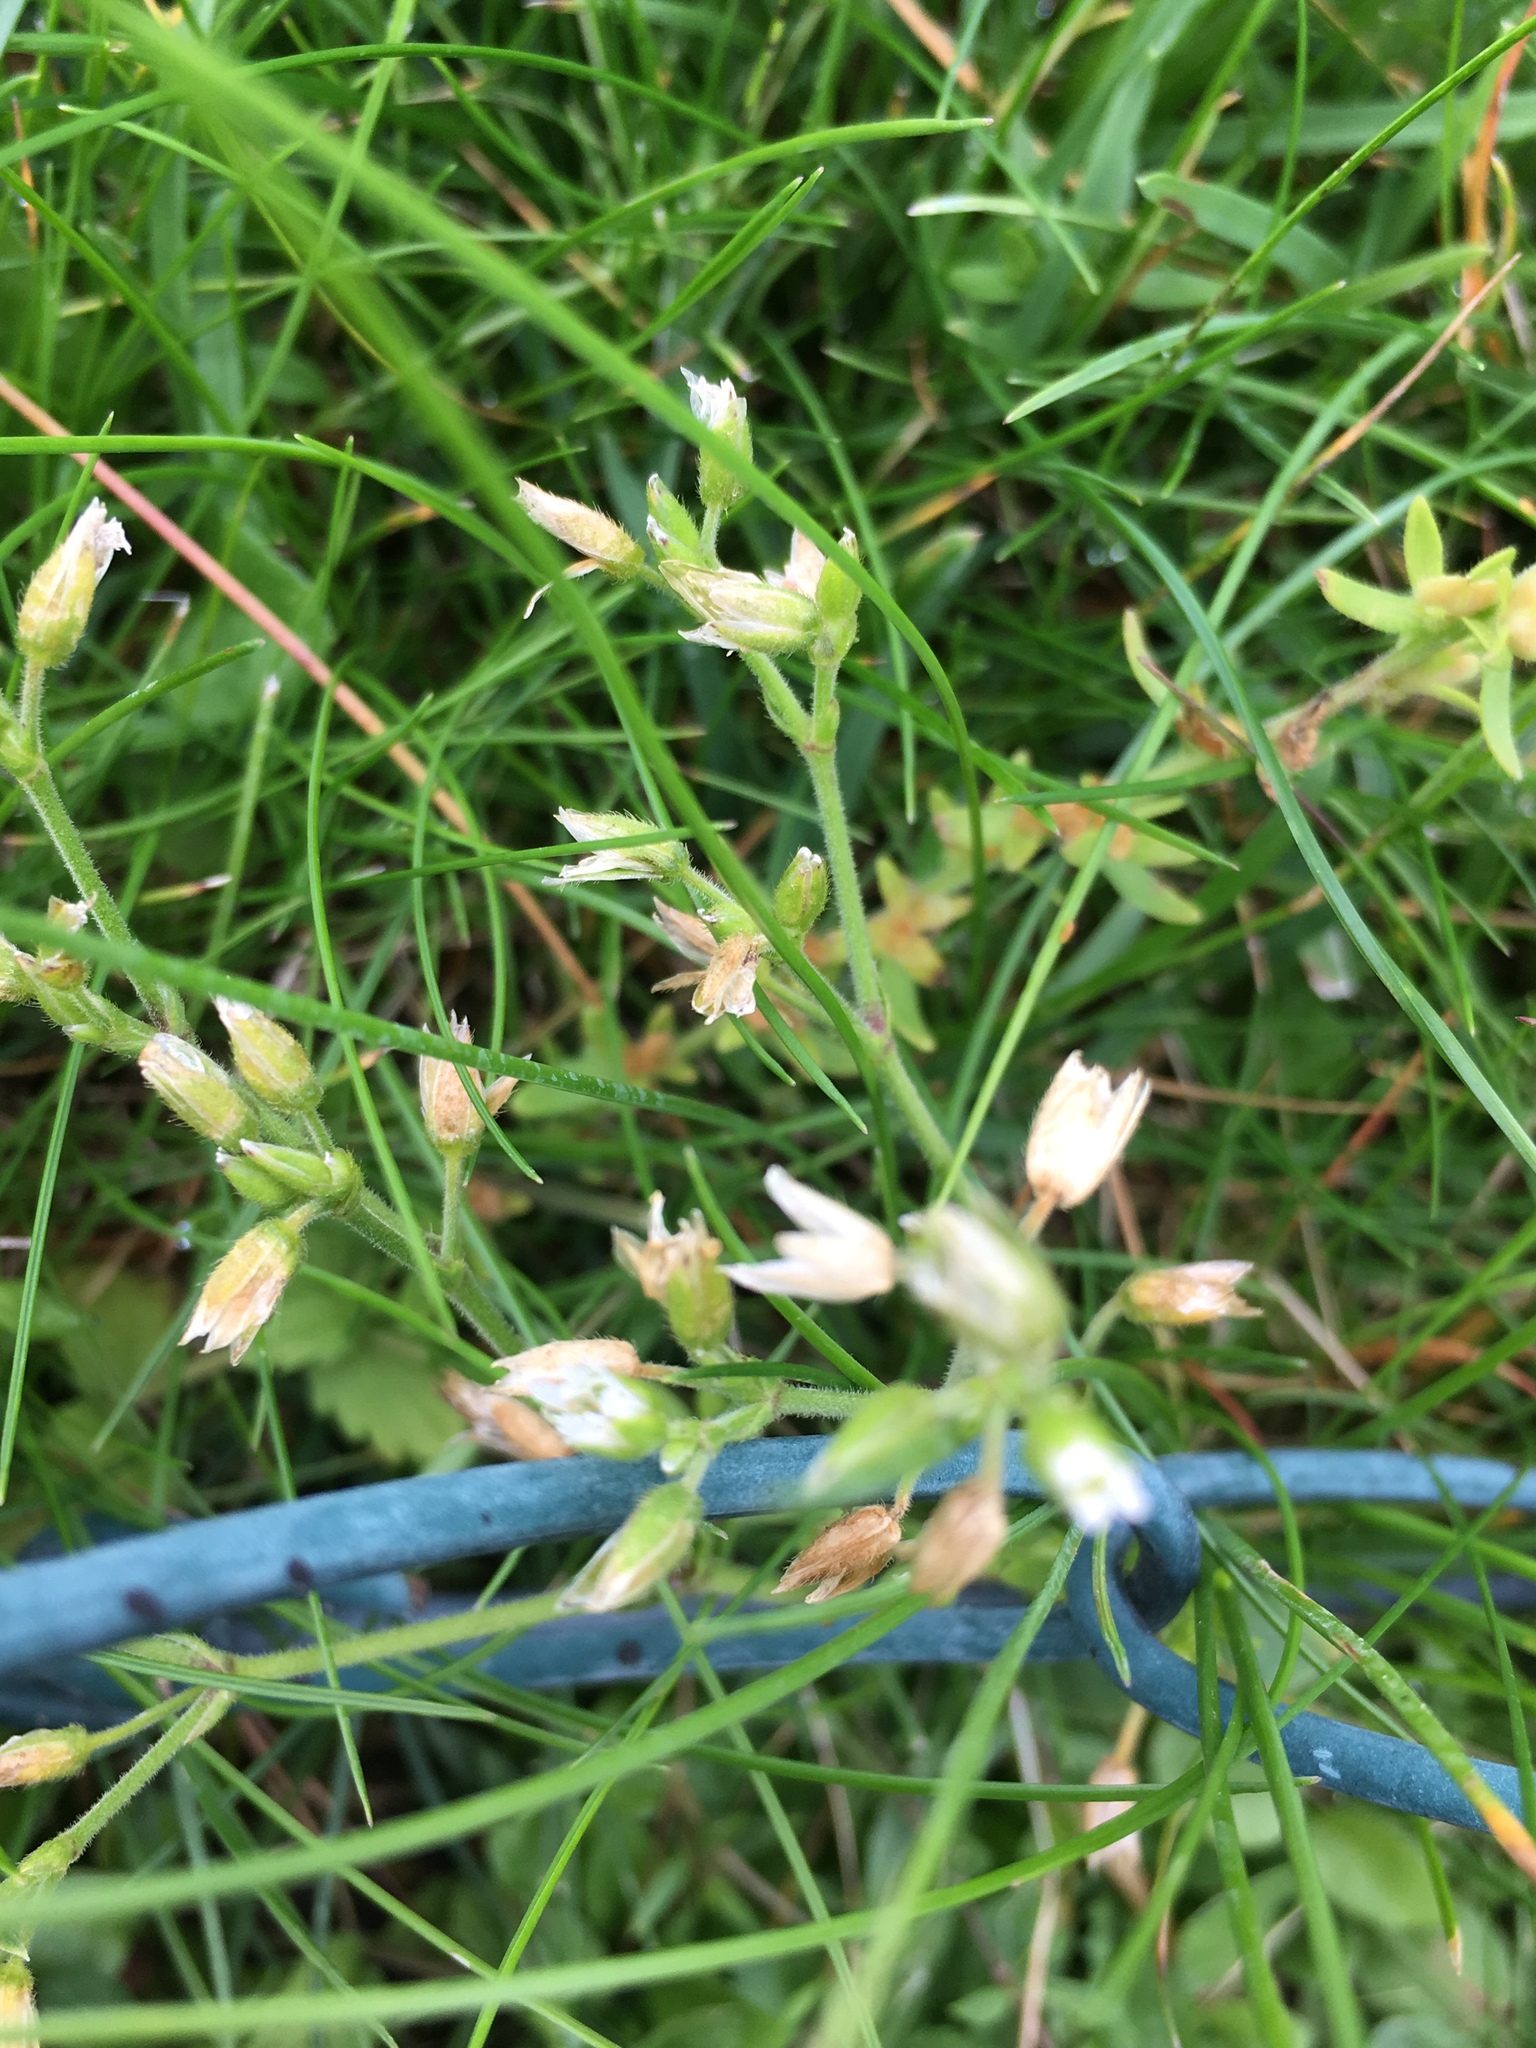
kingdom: Plantae
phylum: Tracheophyta
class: Magnoliopsida
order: Caryophyllales
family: Caryophyllaceae
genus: Cerastium
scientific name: Cerastium holosteoides
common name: Big chickweed
